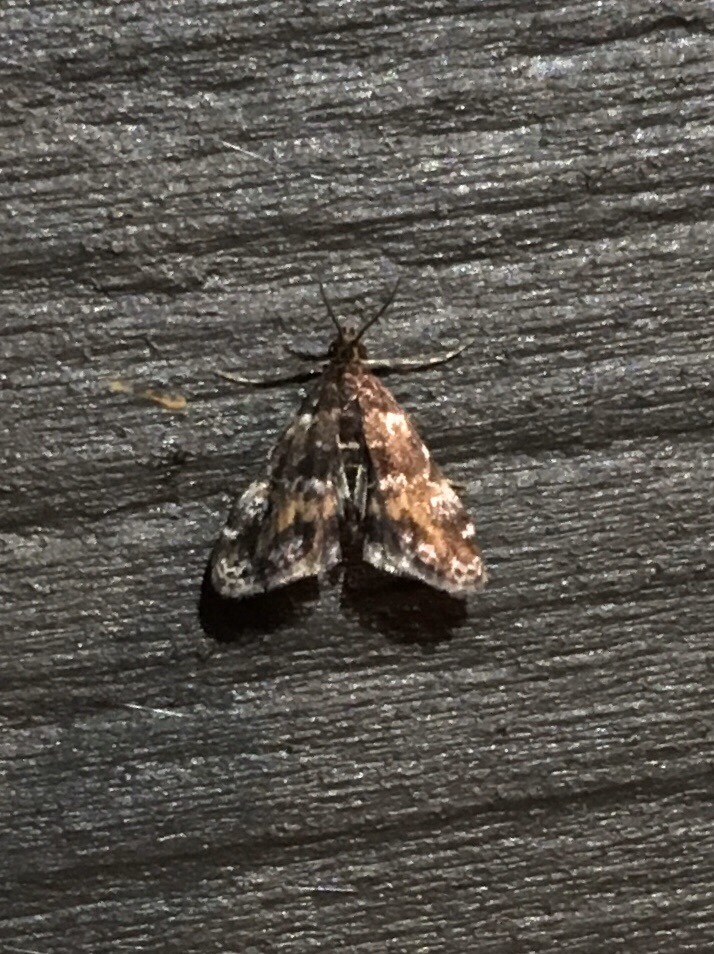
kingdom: Animalia
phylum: Arthropoda
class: Insecta
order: Lepidoptera
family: Crambidae
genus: Elophila
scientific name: Elophila obliteralis
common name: Waterlily leafcutter moth
